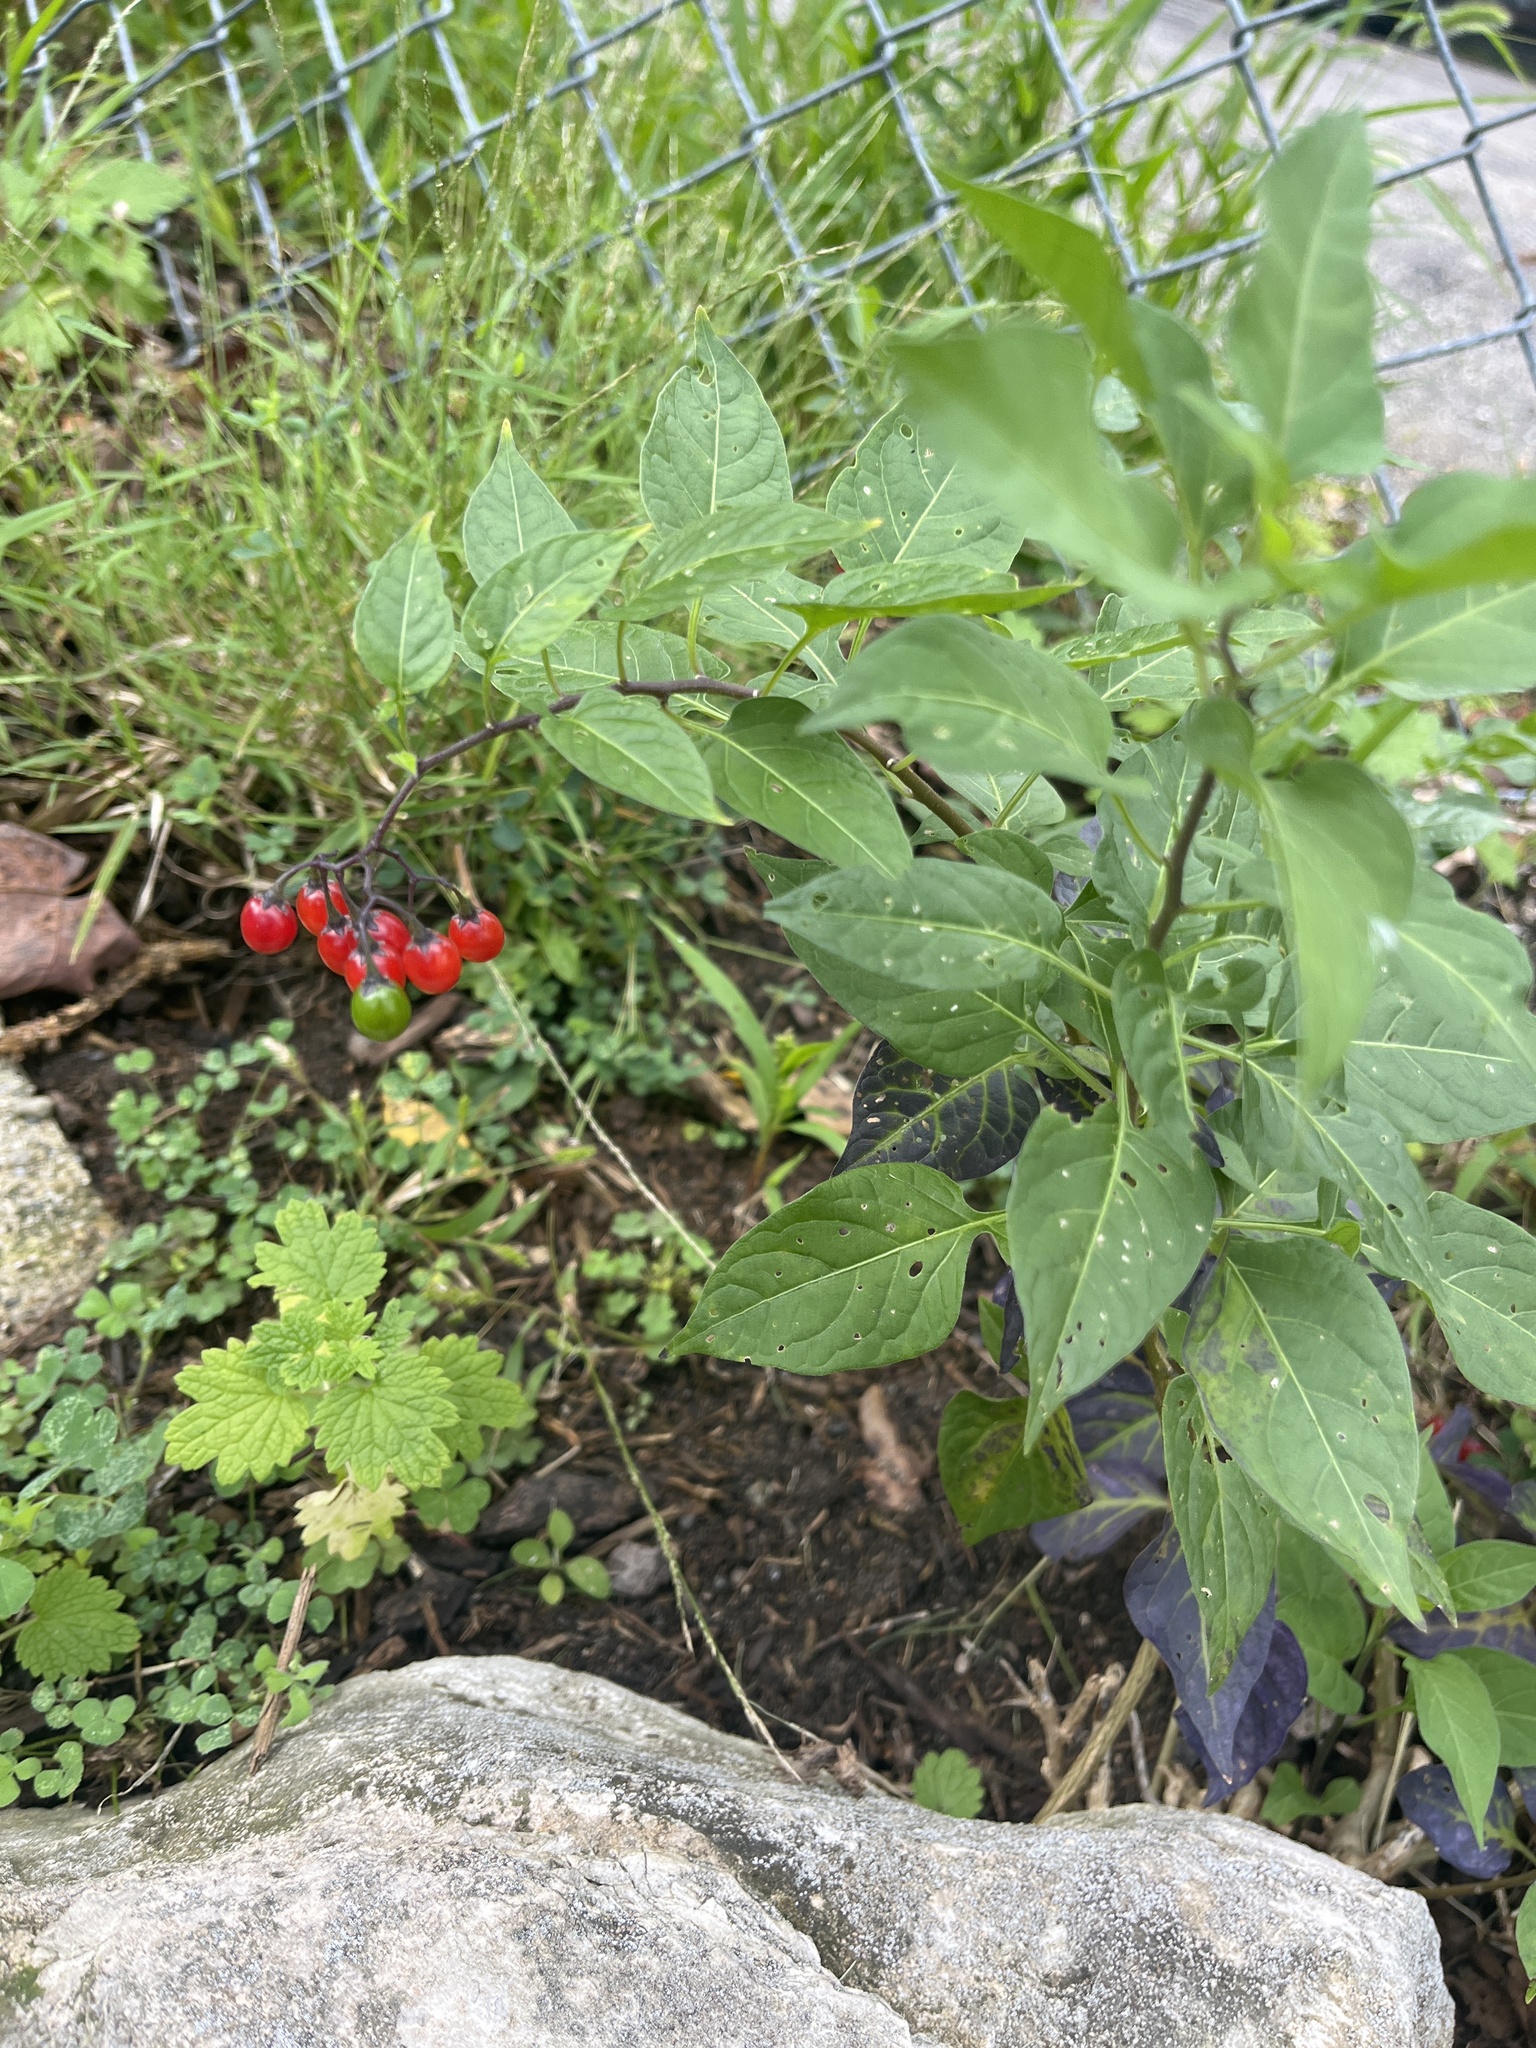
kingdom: Plantae
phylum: Tracheophyta
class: Magnoliopsida
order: Solanales
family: Solanaceae
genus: Solanum
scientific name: Solanum dulcamara
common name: Climbing nightshade
